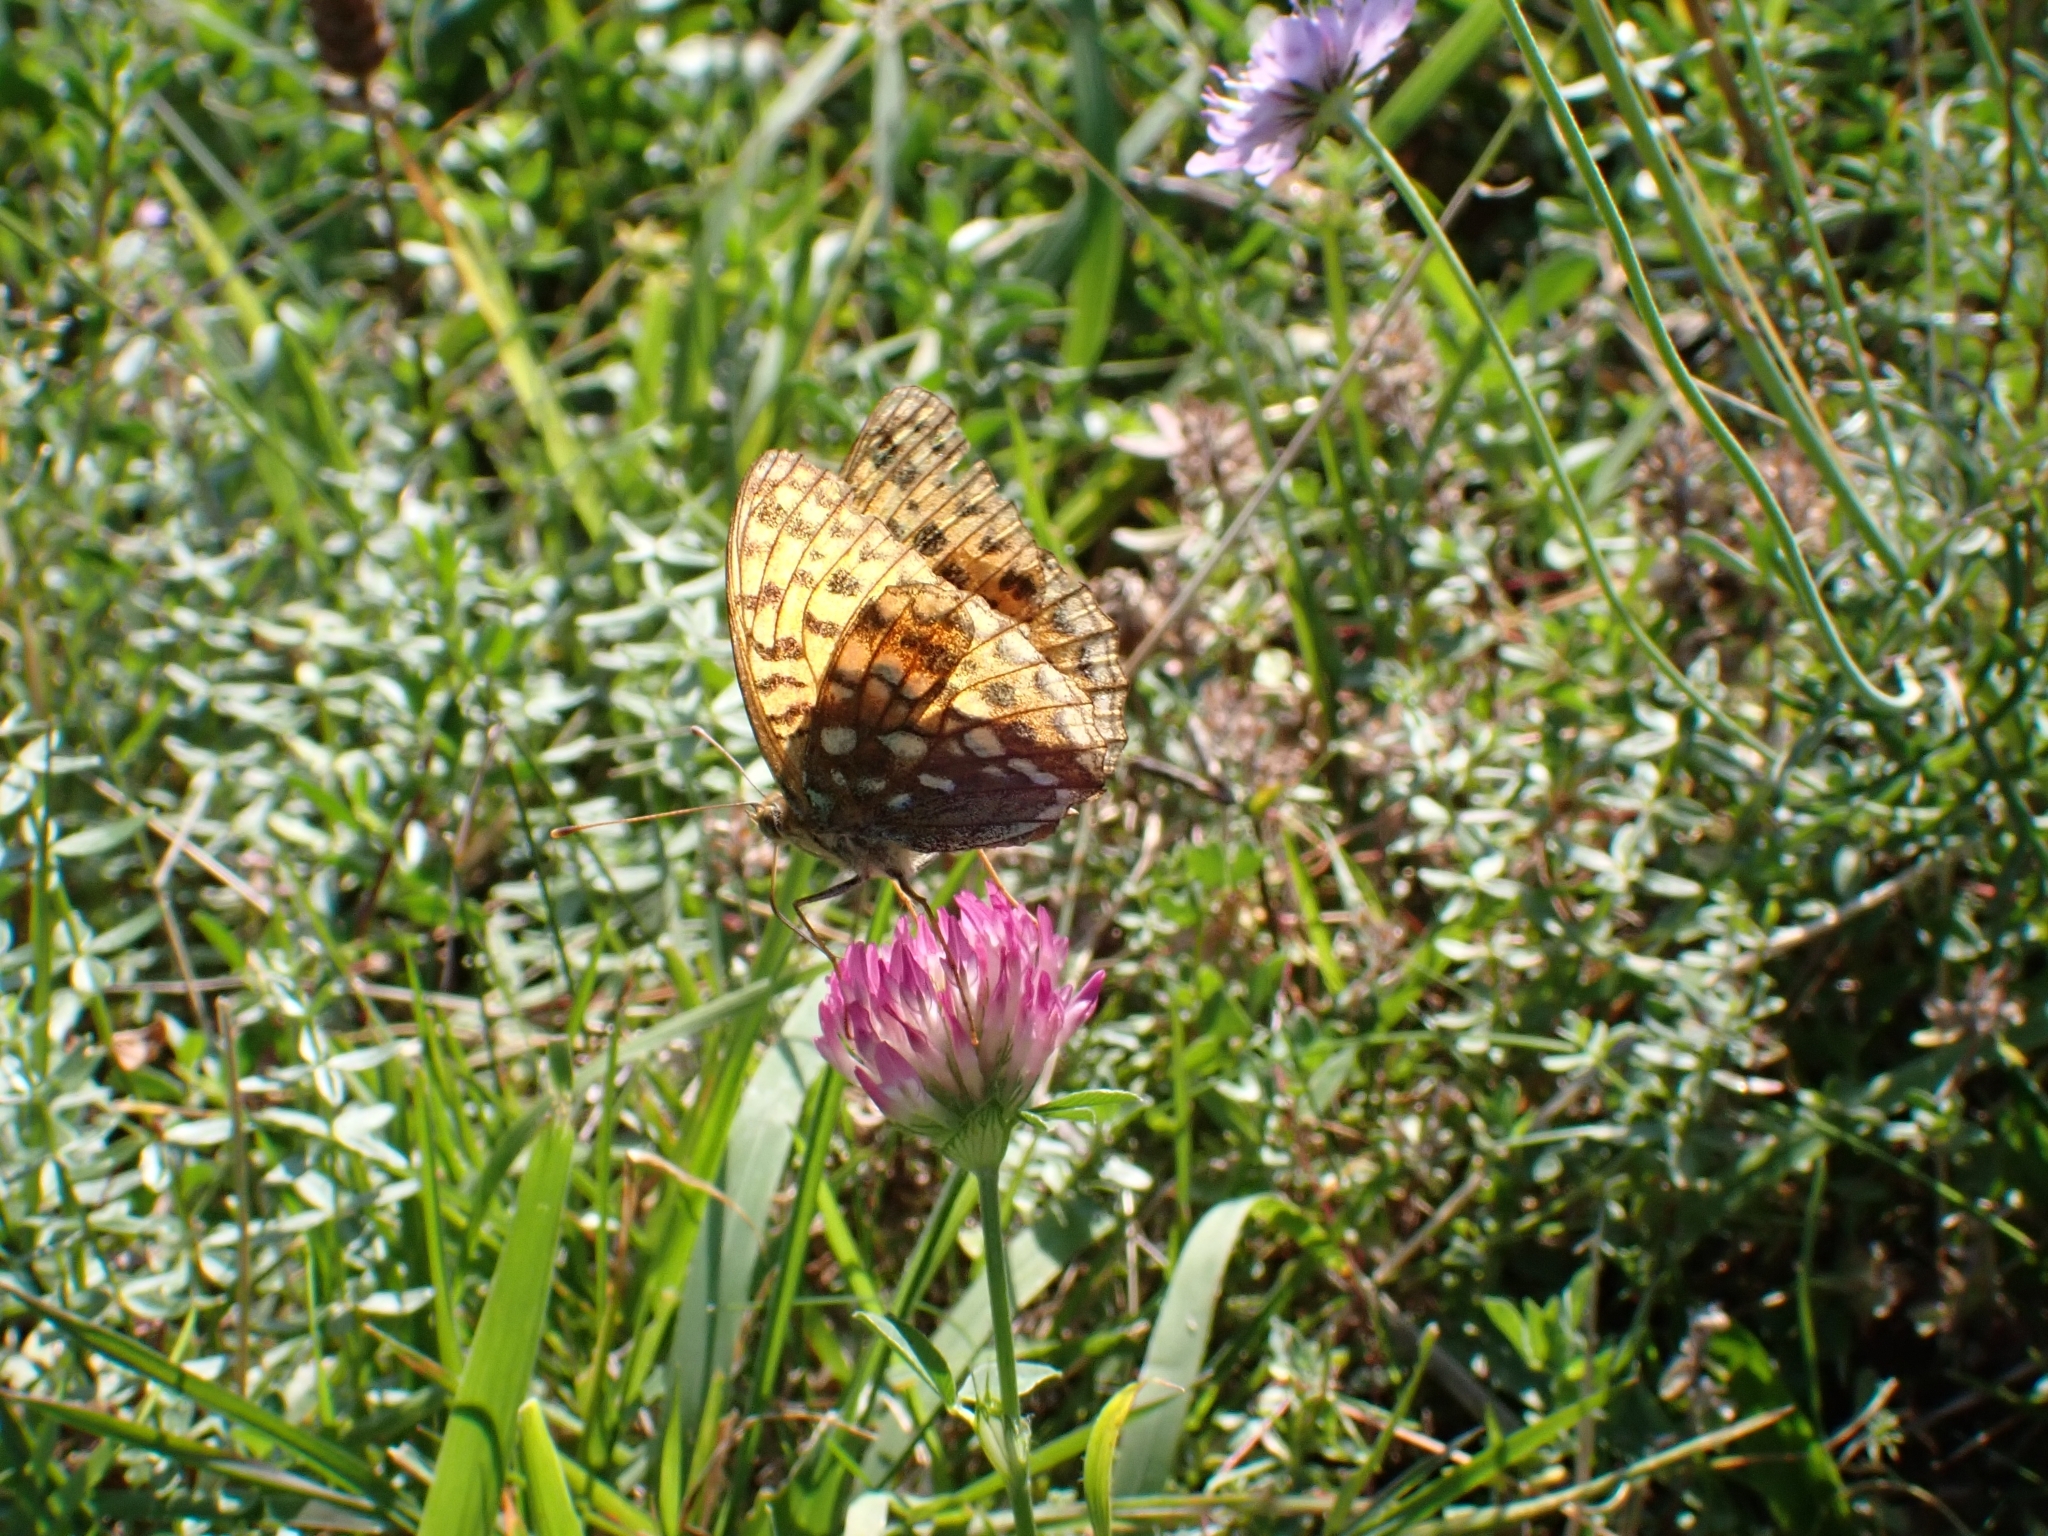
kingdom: Animalia
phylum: Arthropoda
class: Insecta
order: Lepidoptera
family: Nymphalidae
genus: Fabriciana
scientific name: Fabriciana adippe
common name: High brown fritillary
